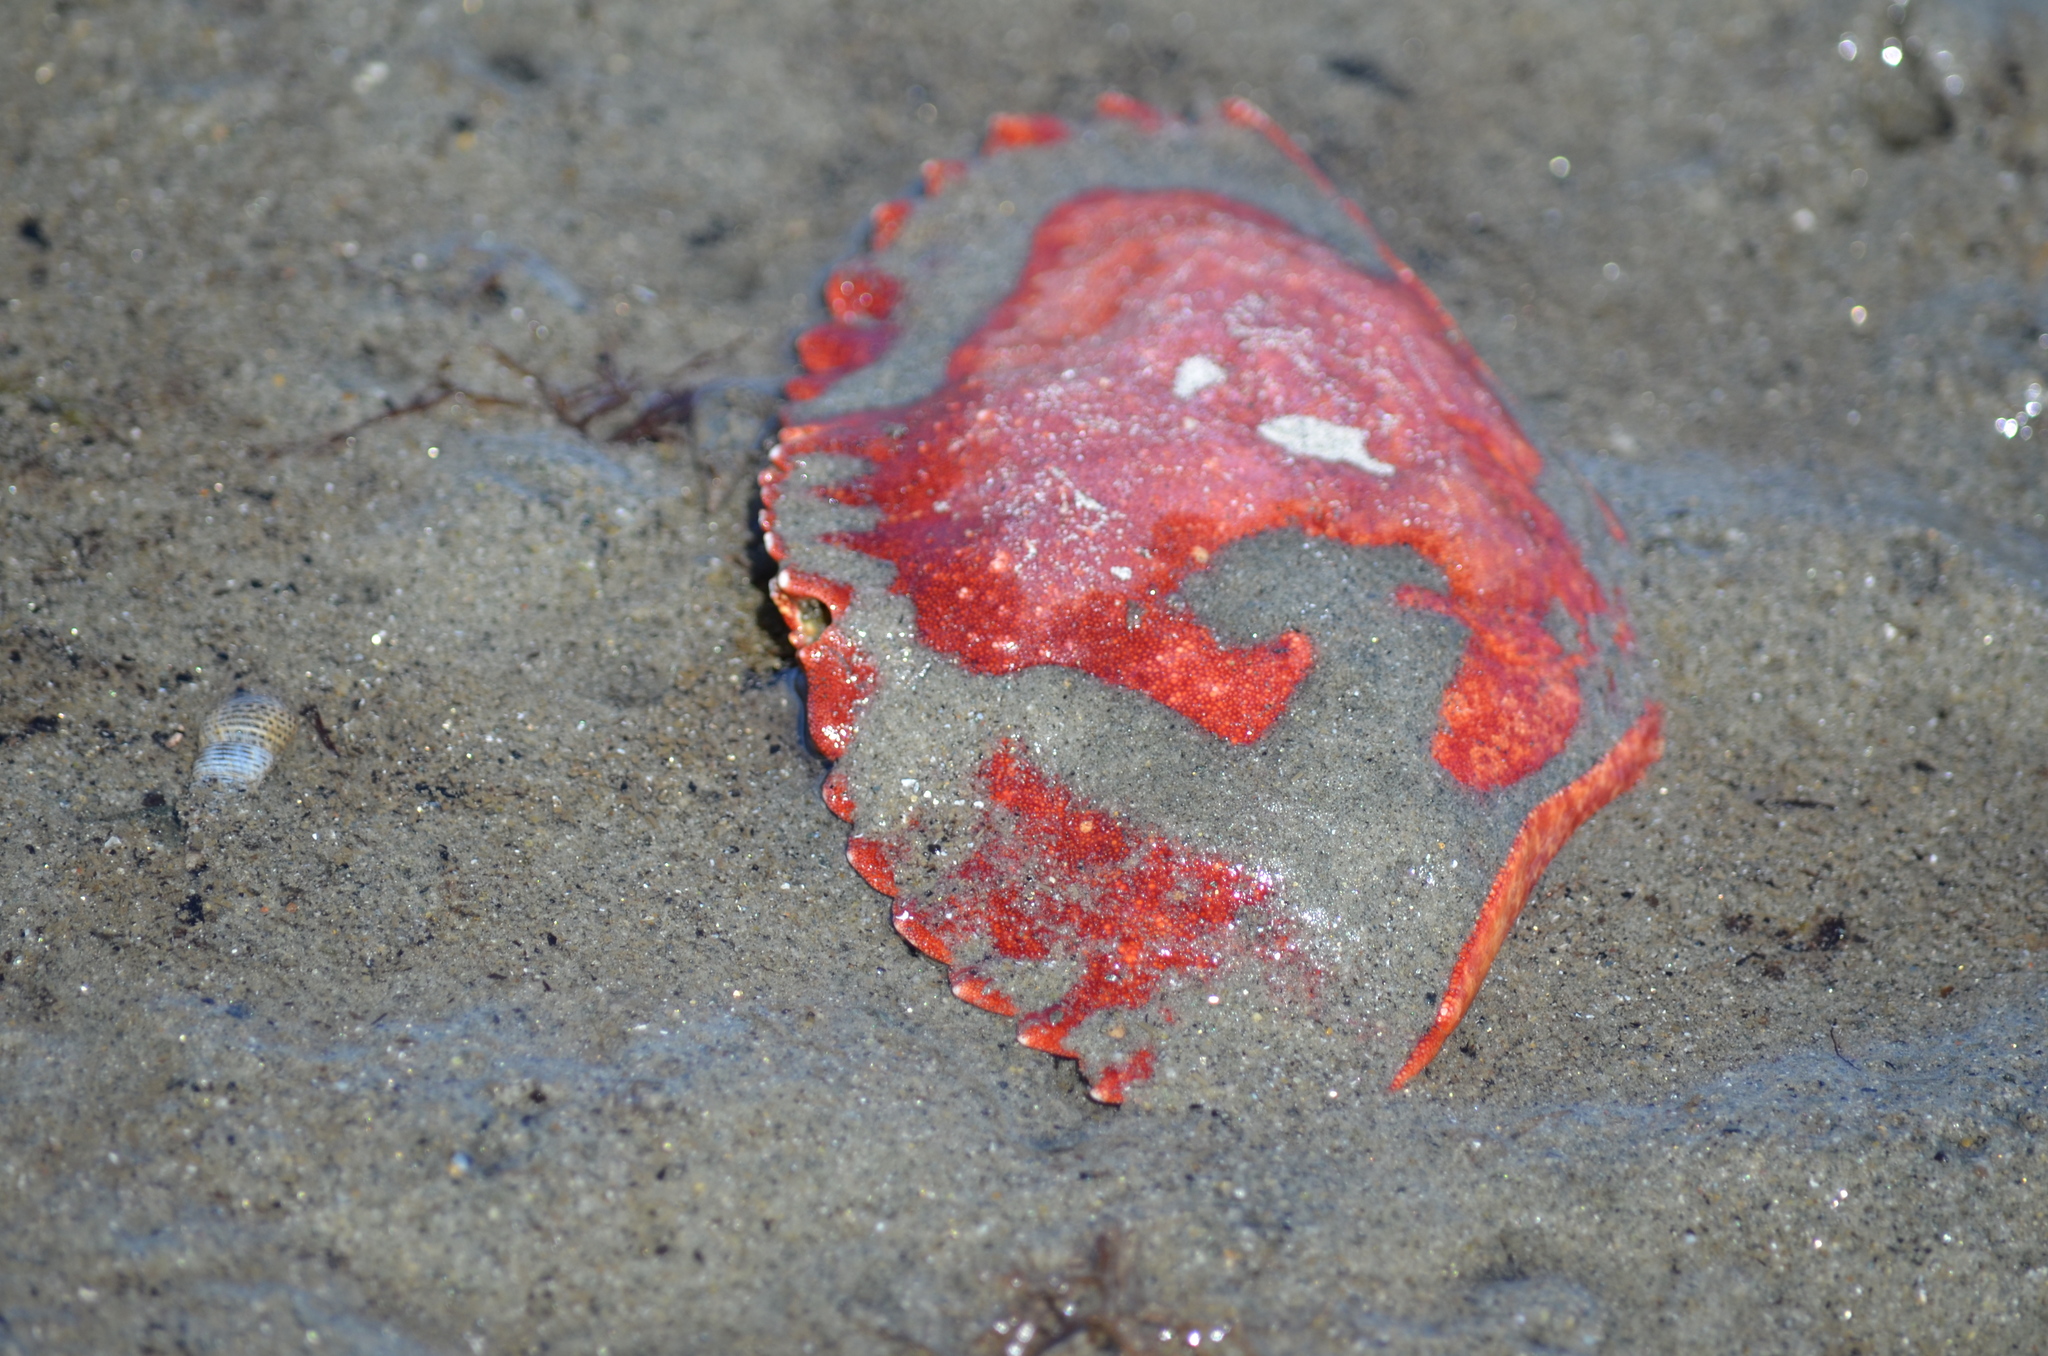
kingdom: Animalia
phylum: Arthropoda
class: Malacostraca
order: Decapoda
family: Cancridae
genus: Cancer
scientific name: Cancer productus
